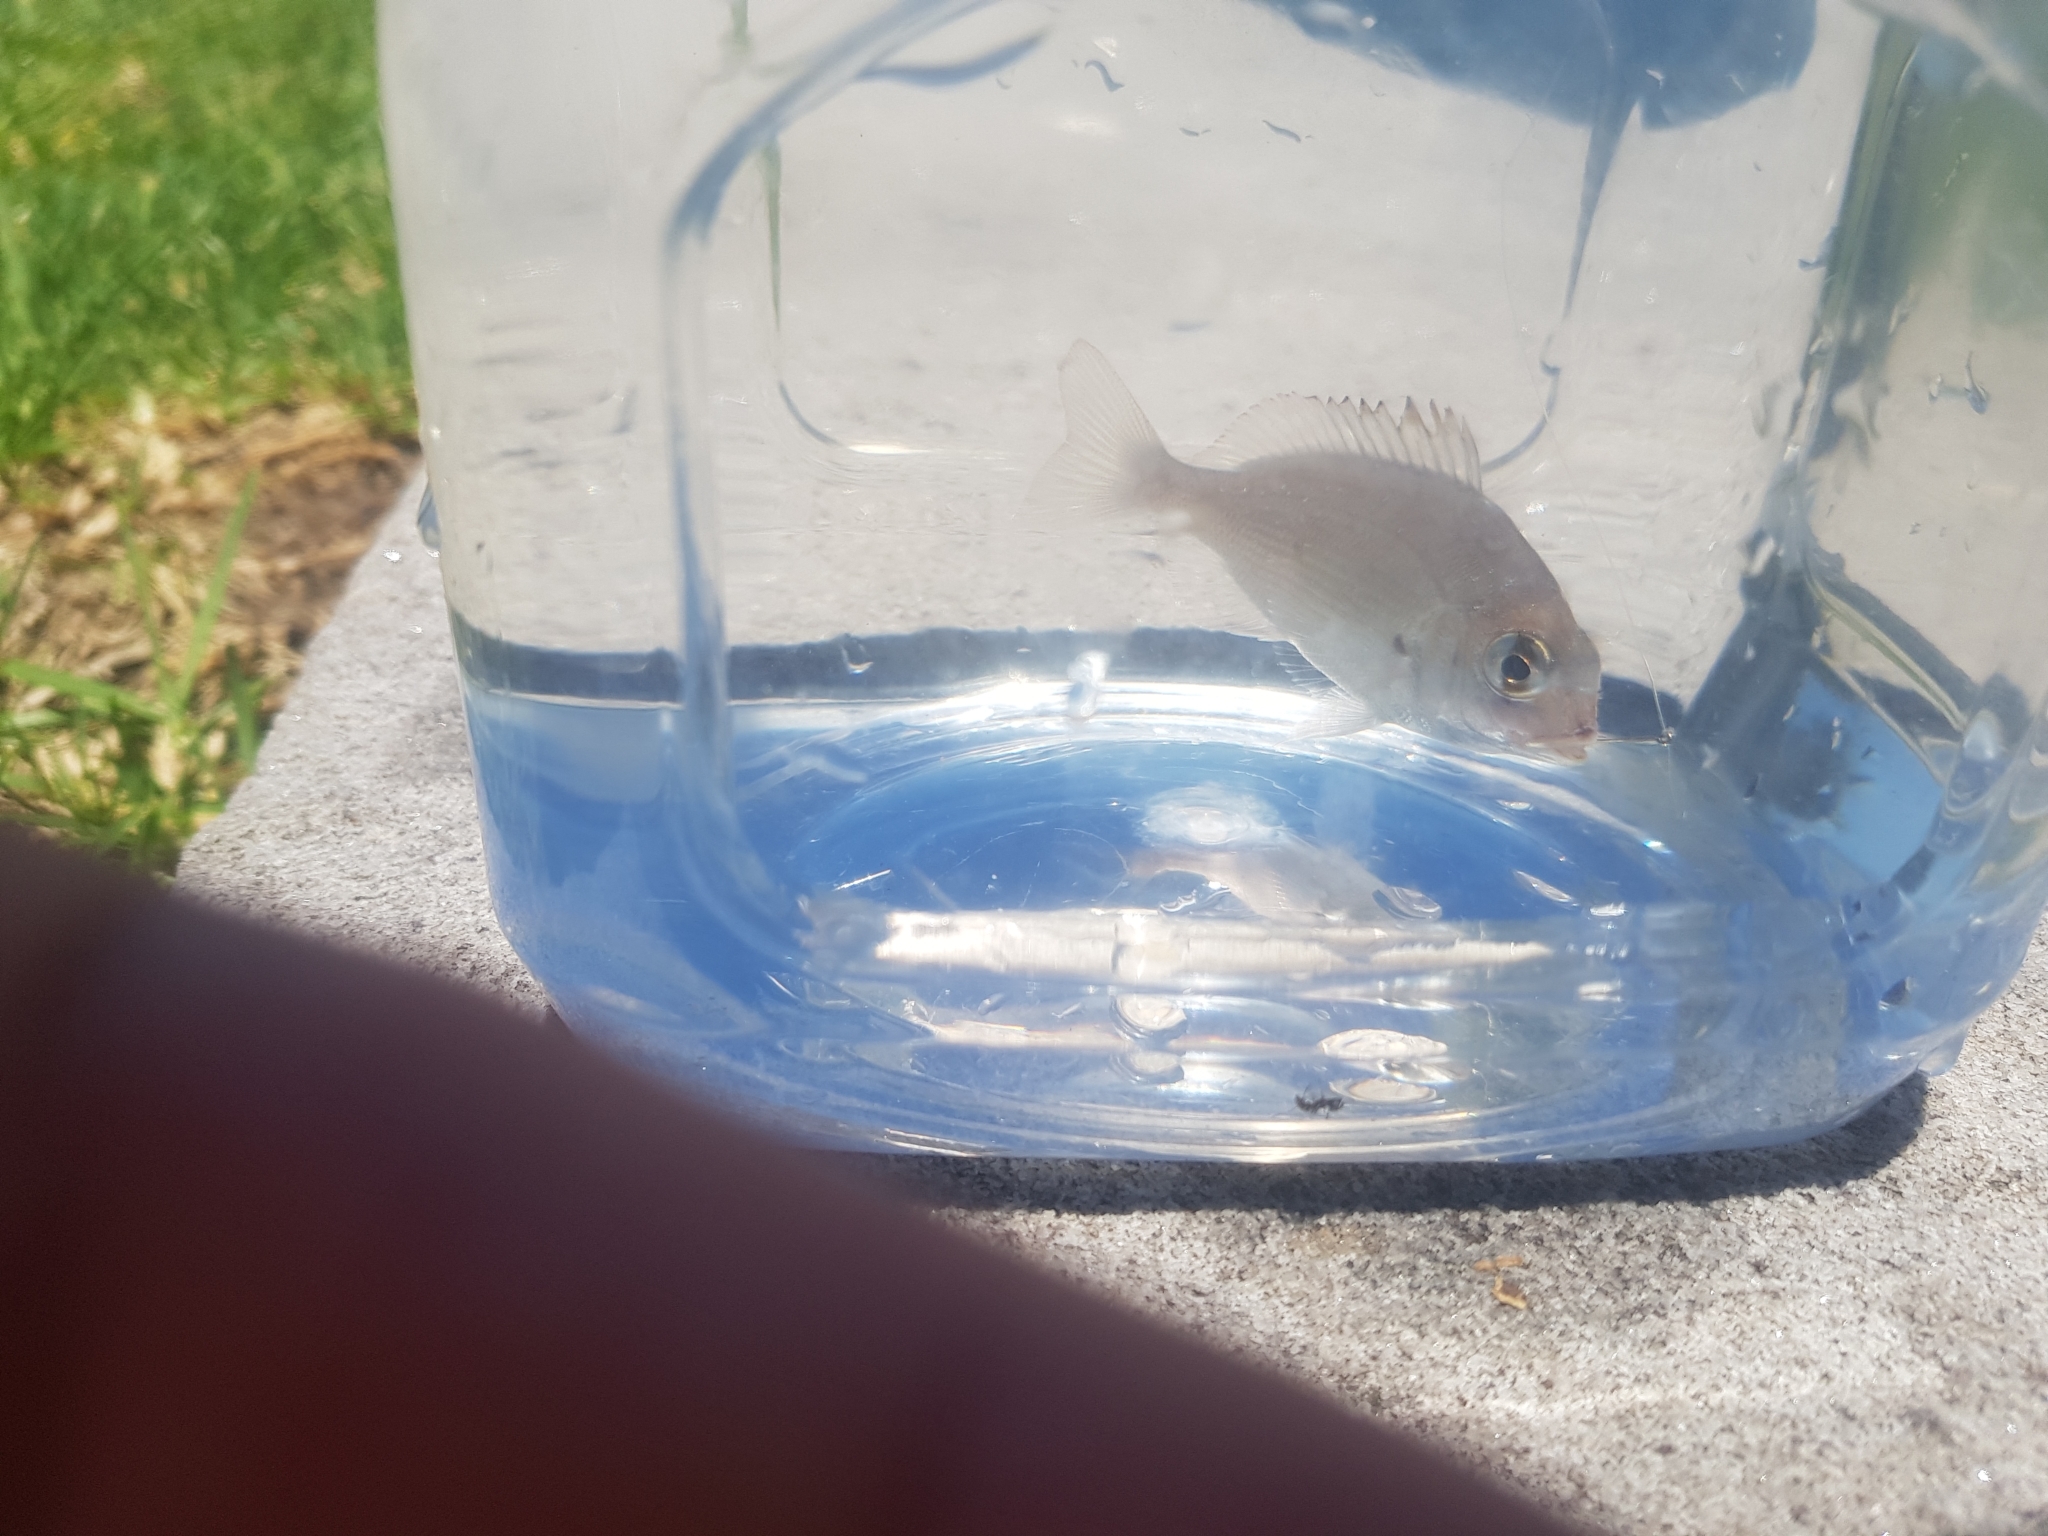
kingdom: Animalia
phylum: Chordata
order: Perciformes
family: Sparidae
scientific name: Sparidae
